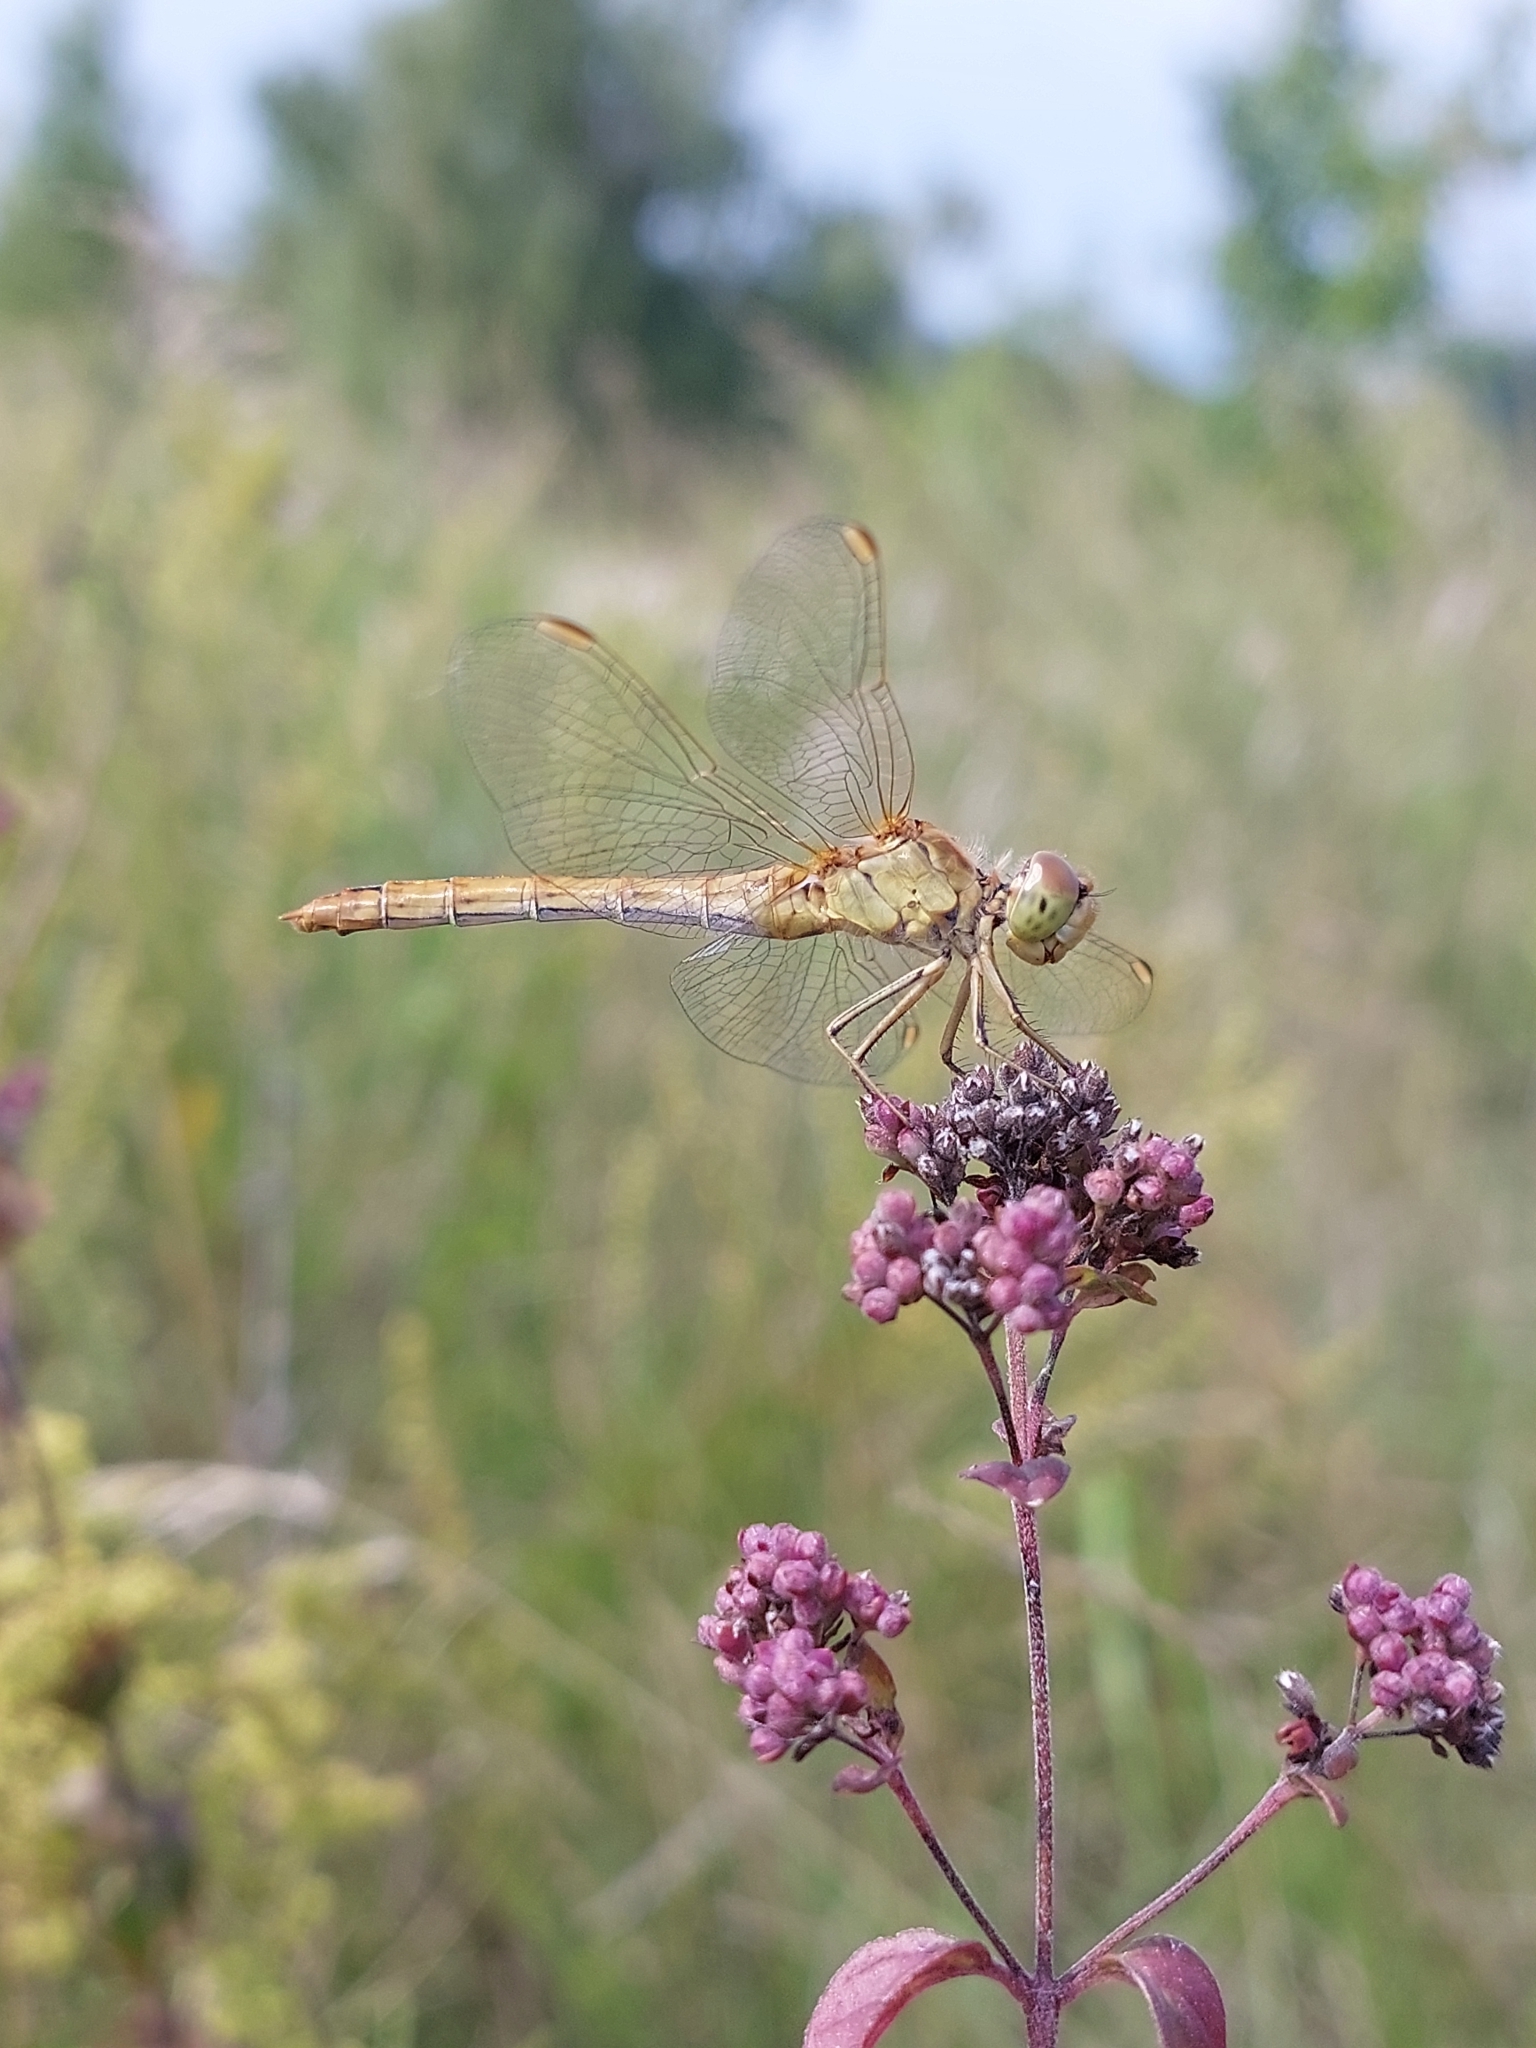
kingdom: Animalia
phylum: Arthropoda
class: Insecta
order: Odonata
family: Libellulidae
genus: Sympetrum
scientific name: Sympetrum meridionale
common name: Southern darter
